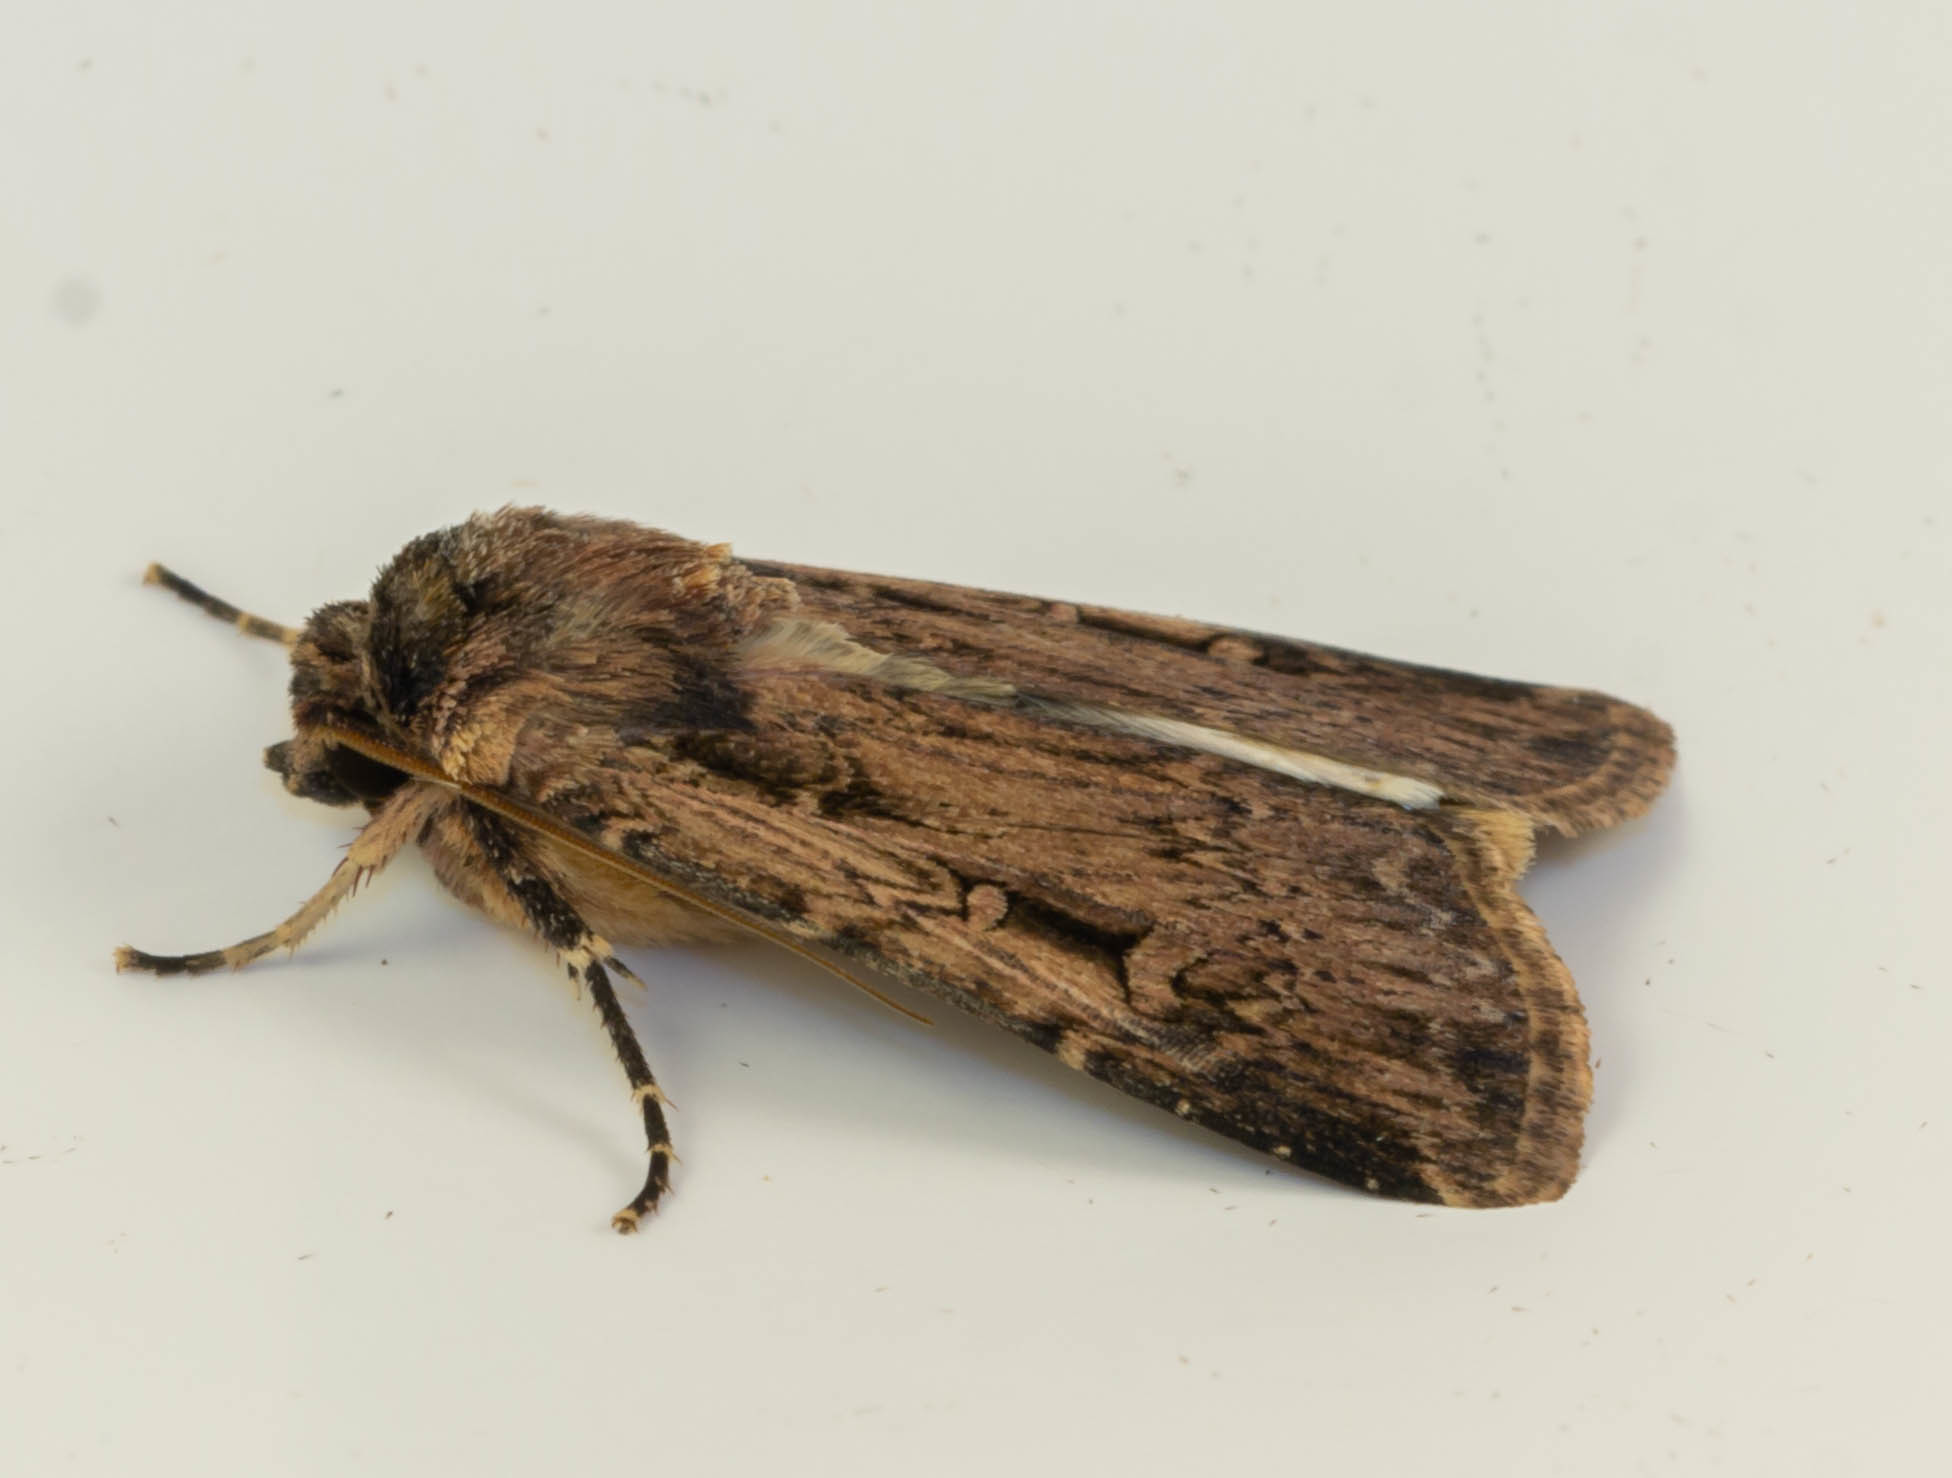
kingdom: Animalia
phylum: Arthropoda
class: Insecta
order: Lepidoptera
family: Noctuidae
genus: Feltia
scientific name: Feltia subterranea
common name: Granulate cutworm
